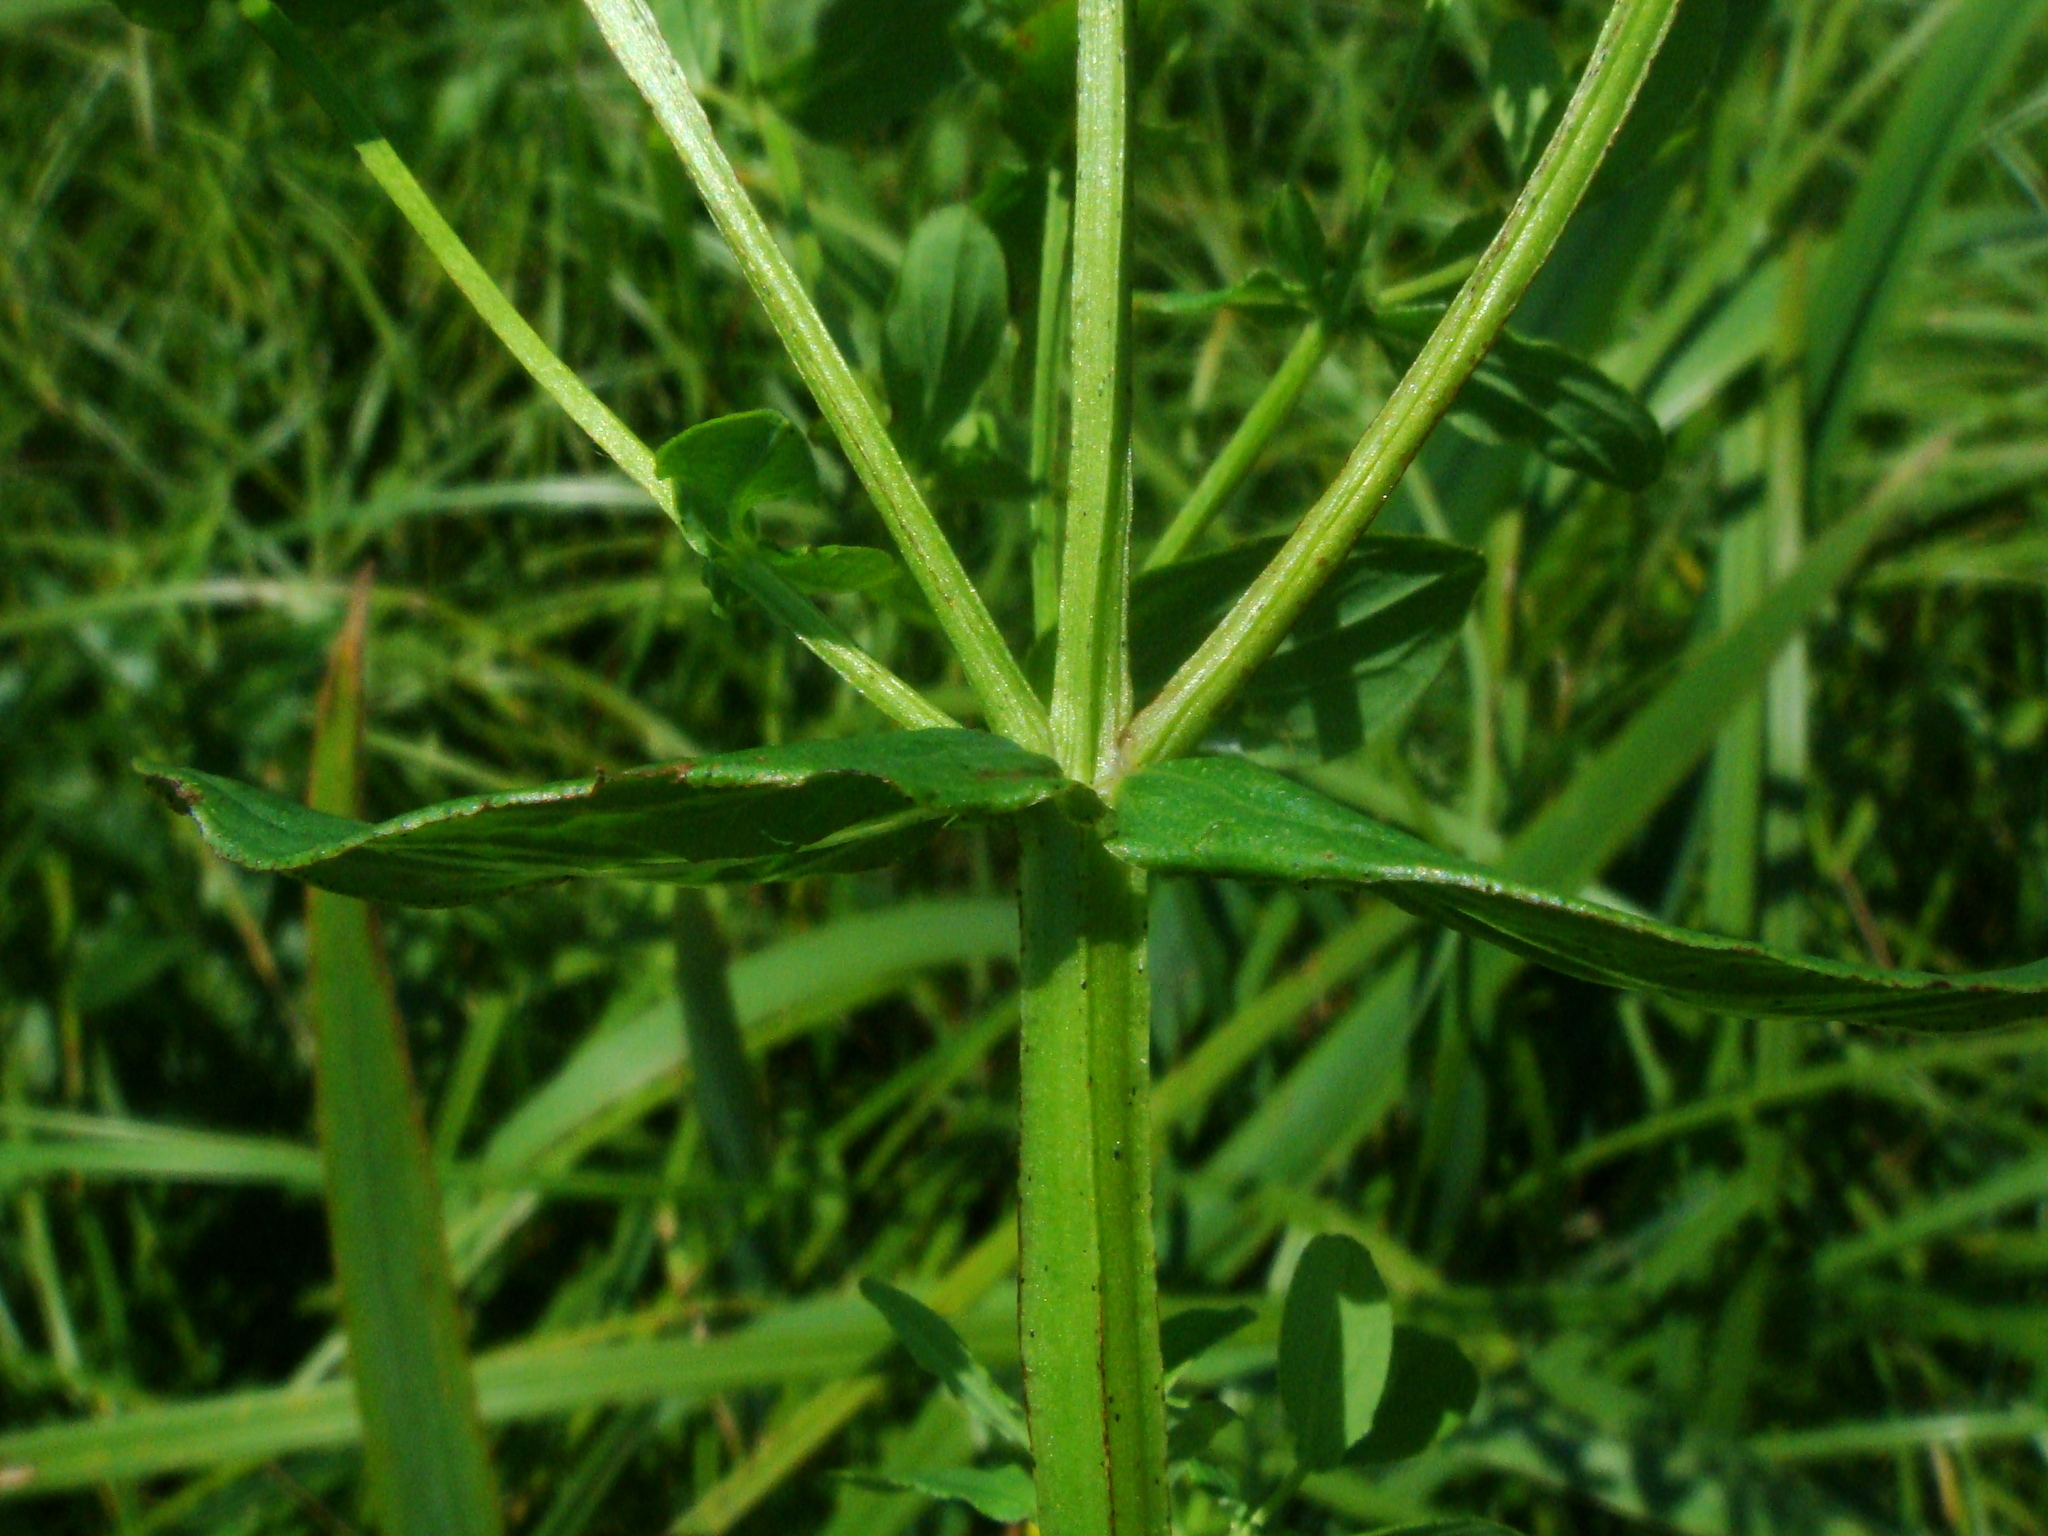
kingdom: Plantae
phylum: Tracheophyta
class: Magnoliopsida
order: Malpighiales
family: Hypericaceae
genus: Hypericum
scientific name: Hypericum tetrapterum
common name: Square-stalked st. john's-wort
